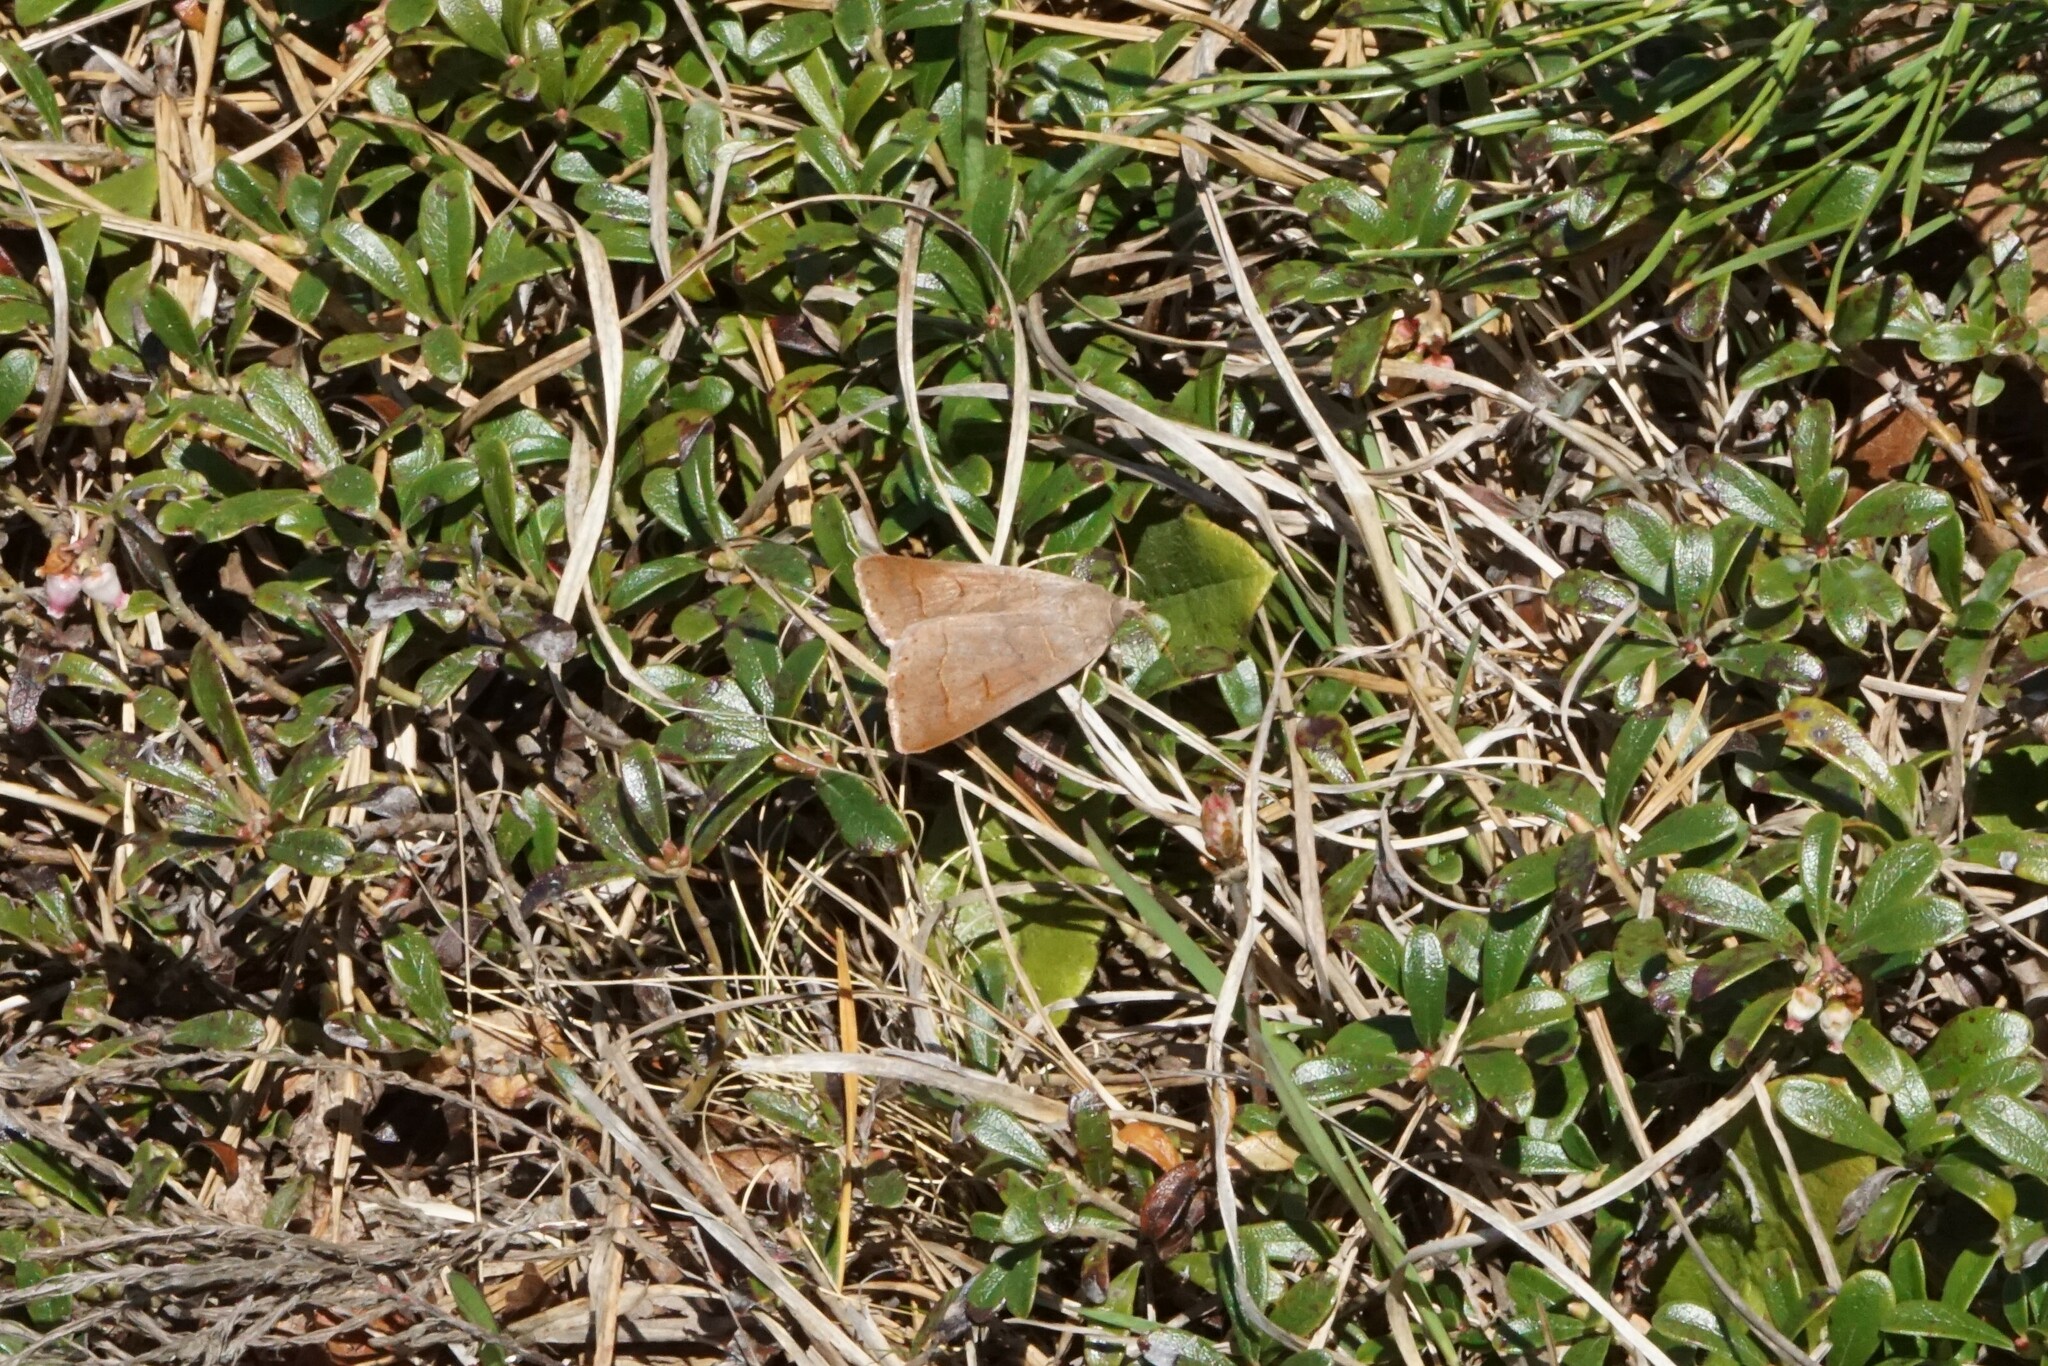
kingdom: Animalia
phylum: Arthropoda
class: Insecta
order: Lepidoptera
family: Erebidae
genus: Phoberia
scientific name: Phoberia atomaris
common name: Common oak moth
